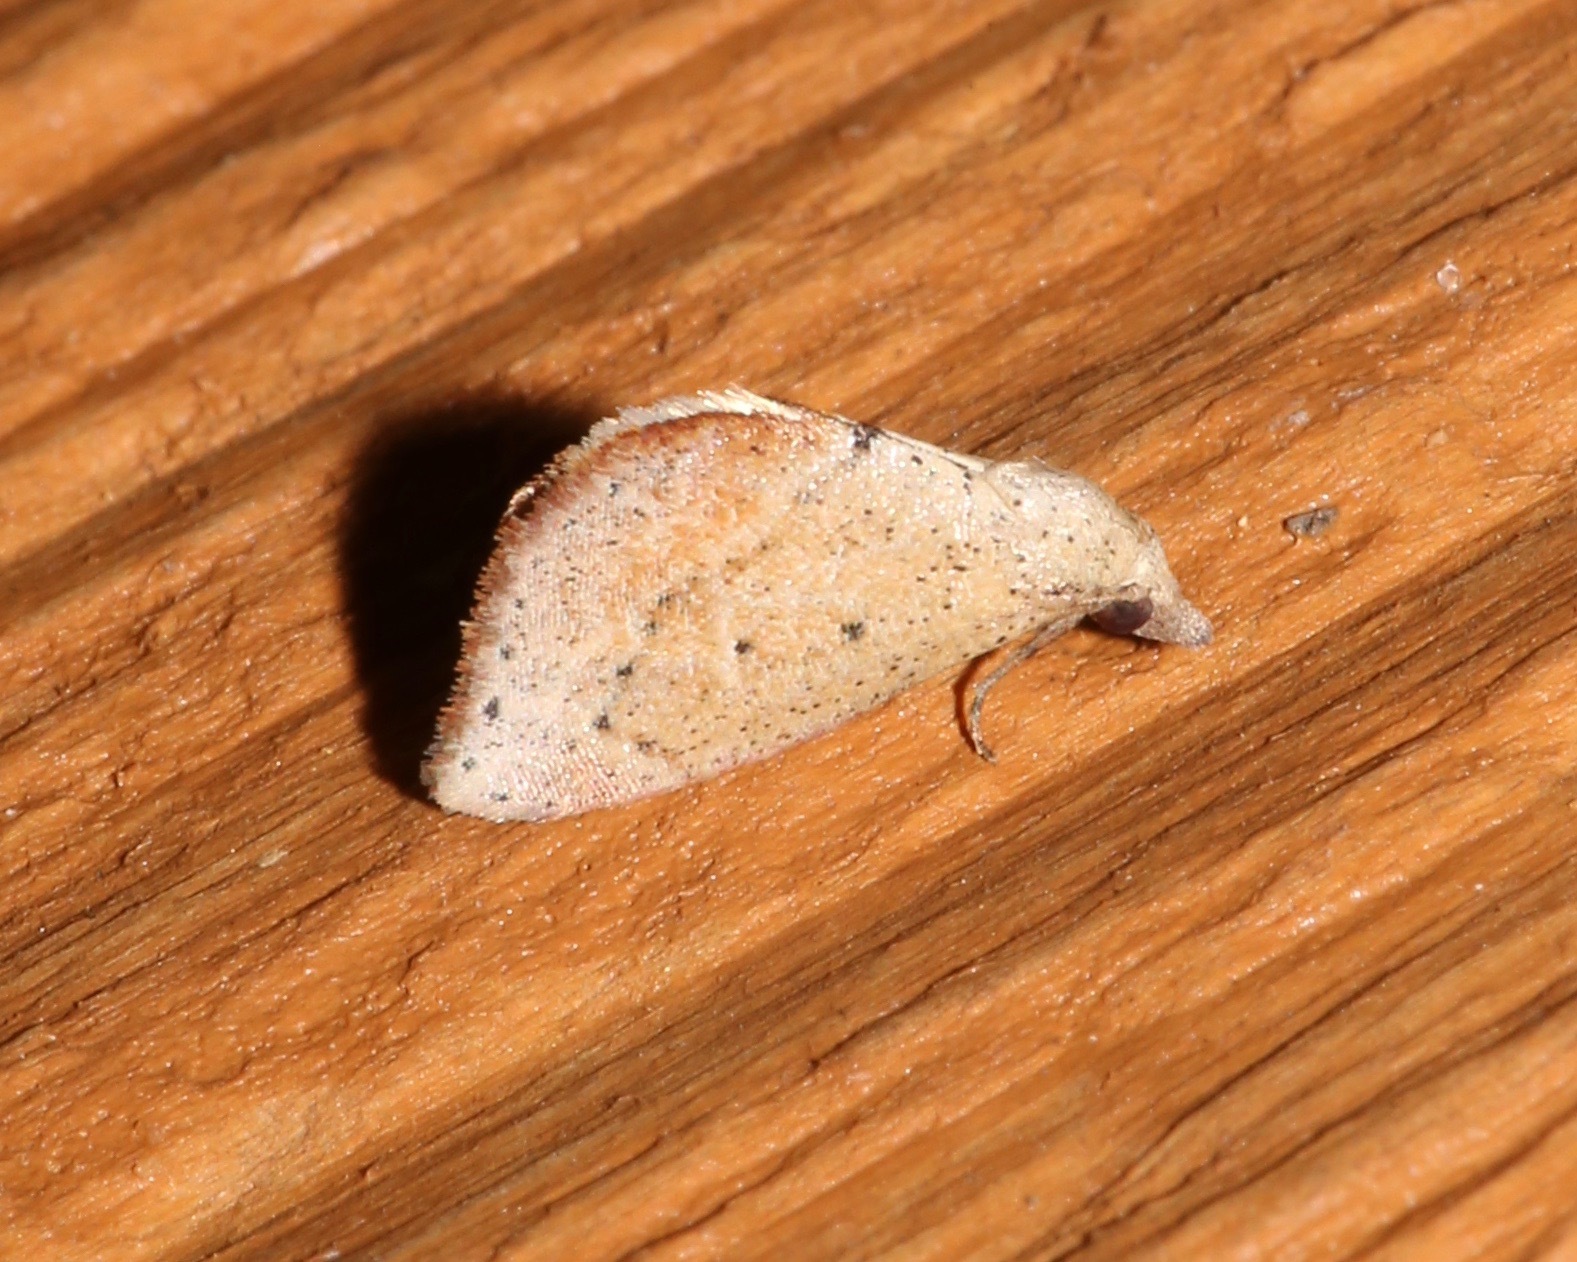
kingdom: Animalia
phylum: Arthropoda
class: Insecta
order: Lepidoptera
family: Noctuidae
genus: Proroblemma
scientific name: Proroblemma testa
